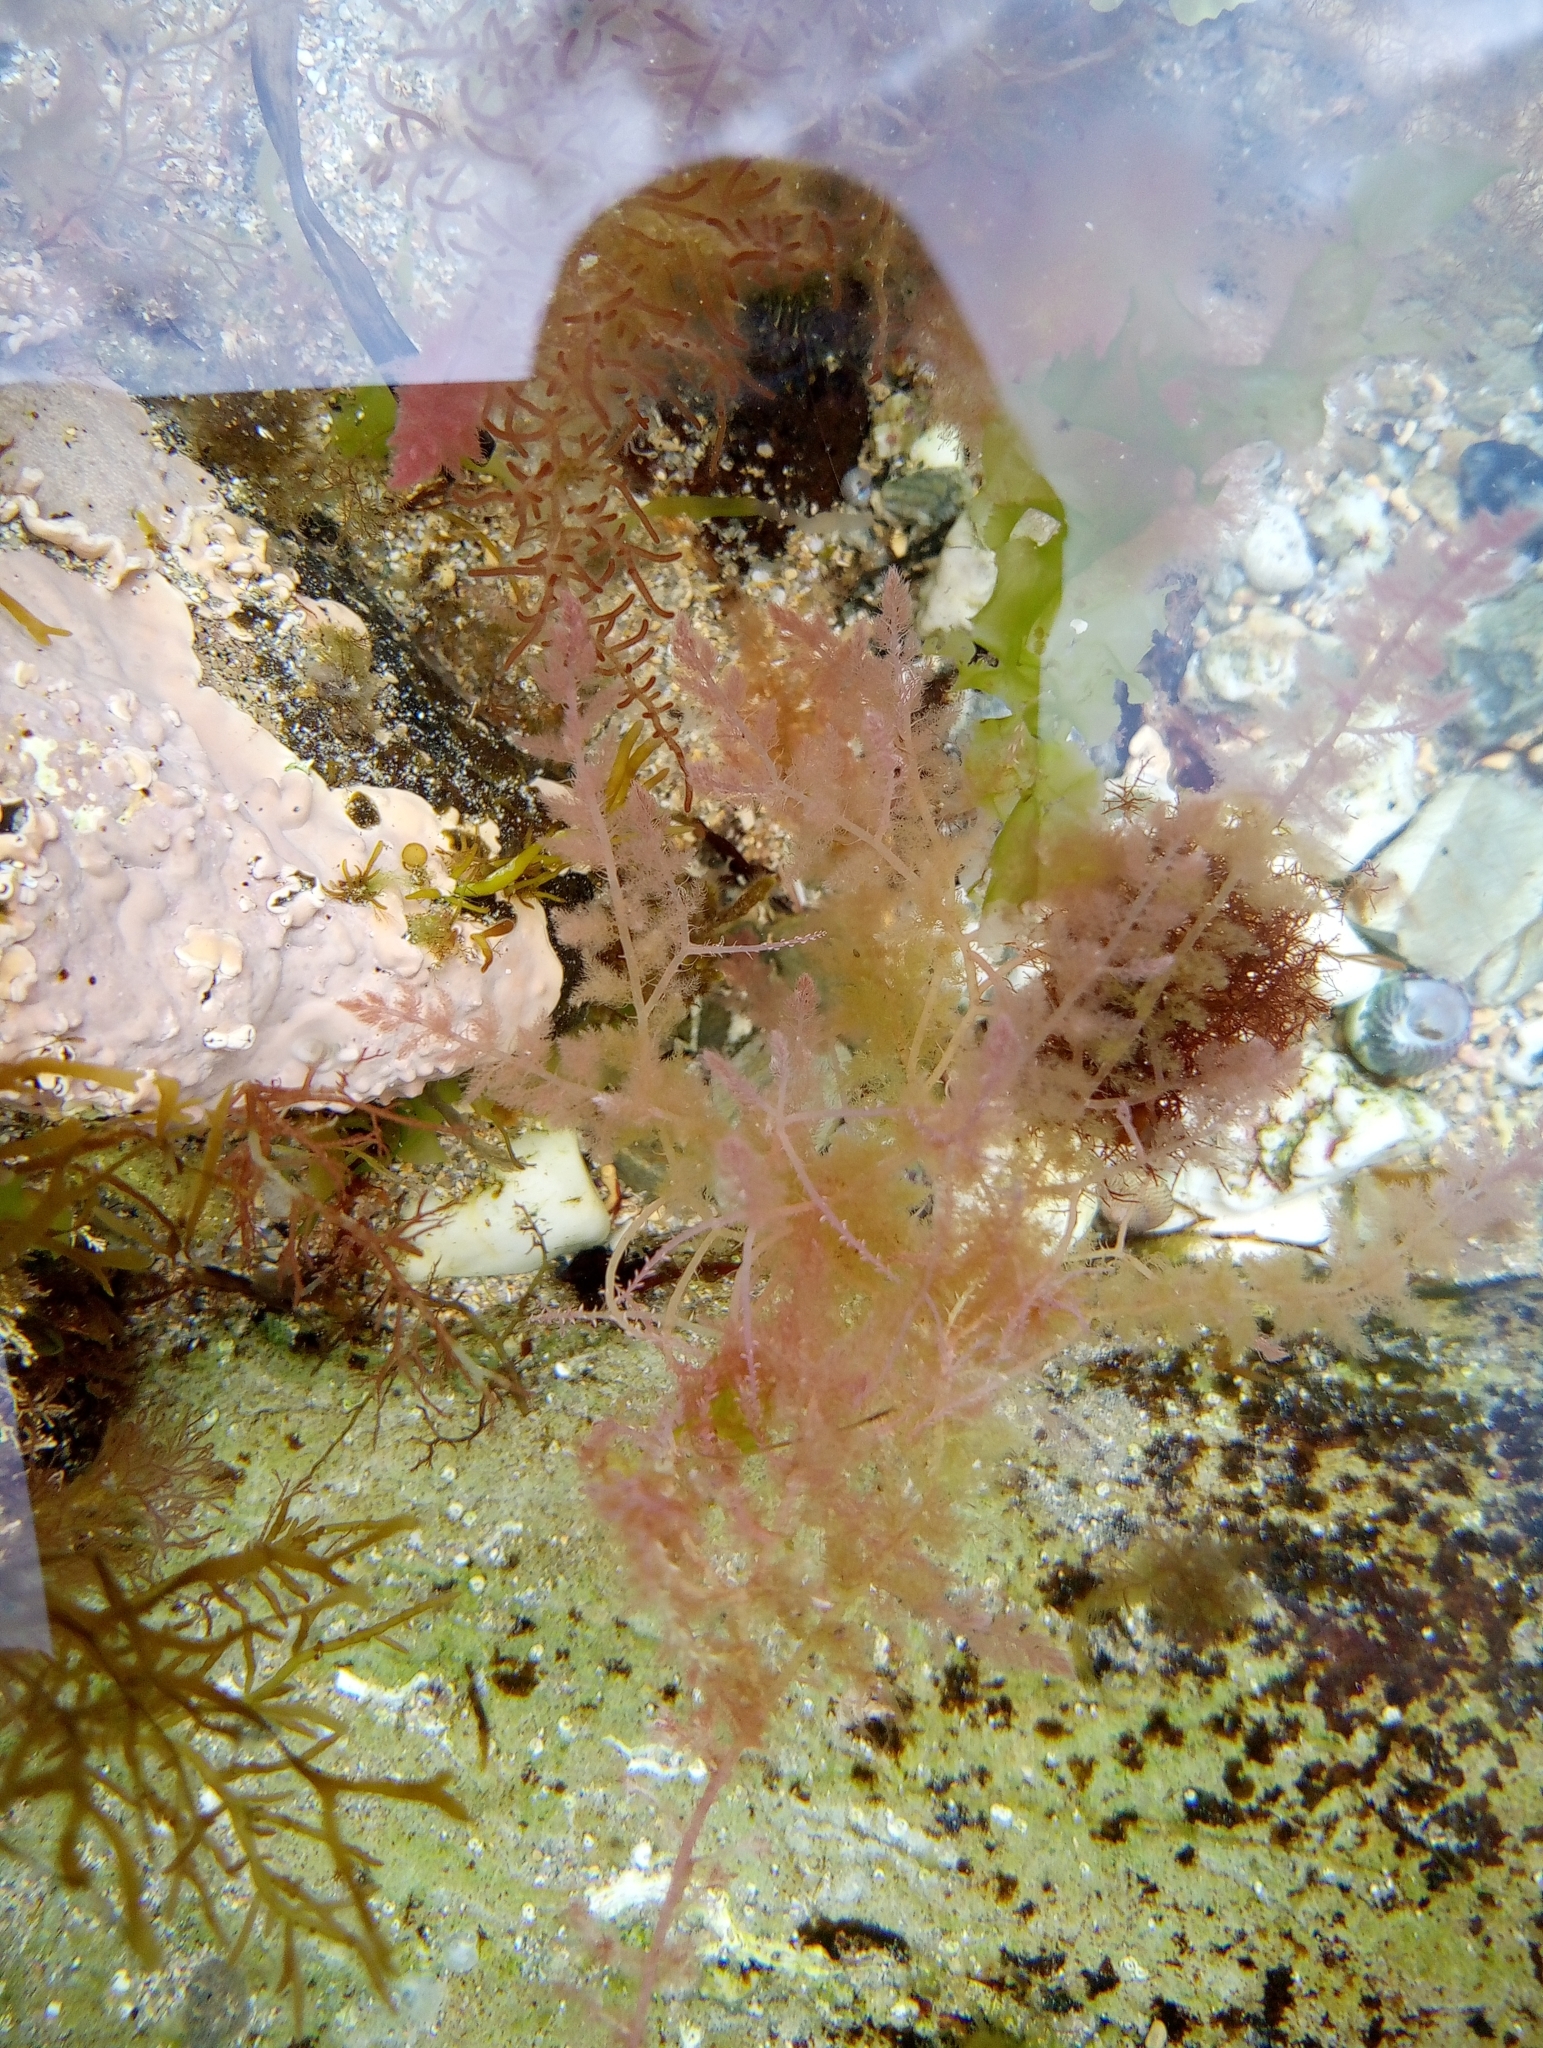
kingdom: Plantae
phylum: Rhodophyta
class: Florideophyceae
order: Bonnemaisoniales
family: Bonnemaisoniaceae
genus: Asparagopsis
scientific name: Asparagopsis armata
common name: Harpoon weed
